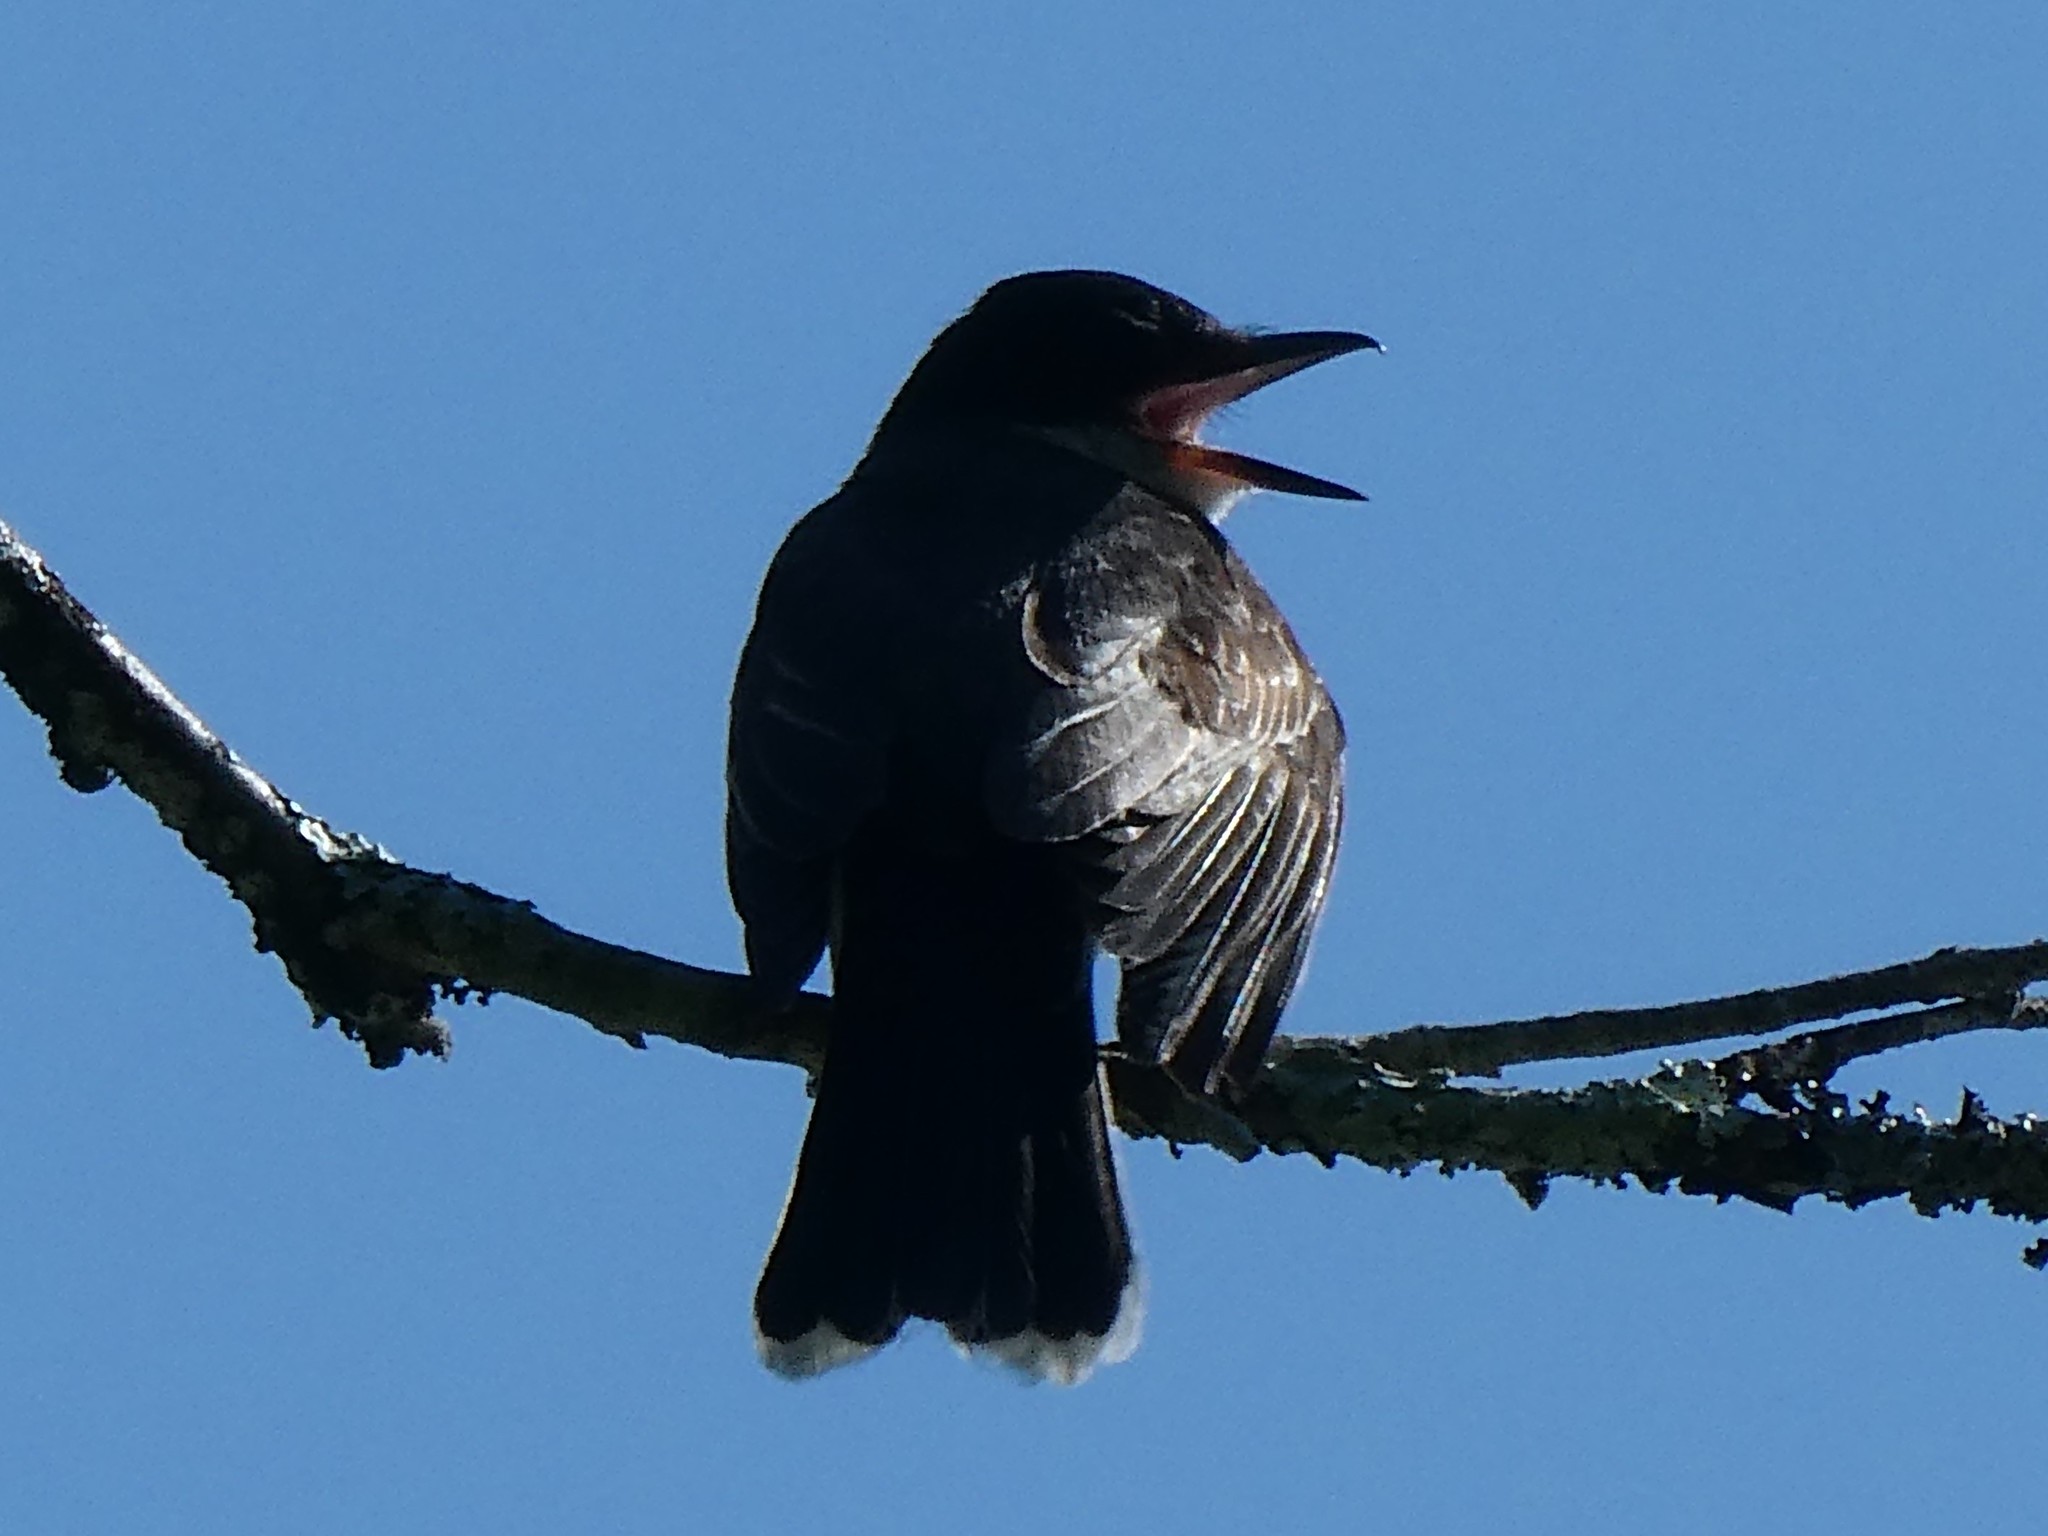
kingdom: Animalia
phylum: Chordata
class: Aves
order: Passeriformes
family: Tyrannidae
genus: Tyrannus
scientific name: Tyrannus tyrannus
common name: Eastern kingbird
